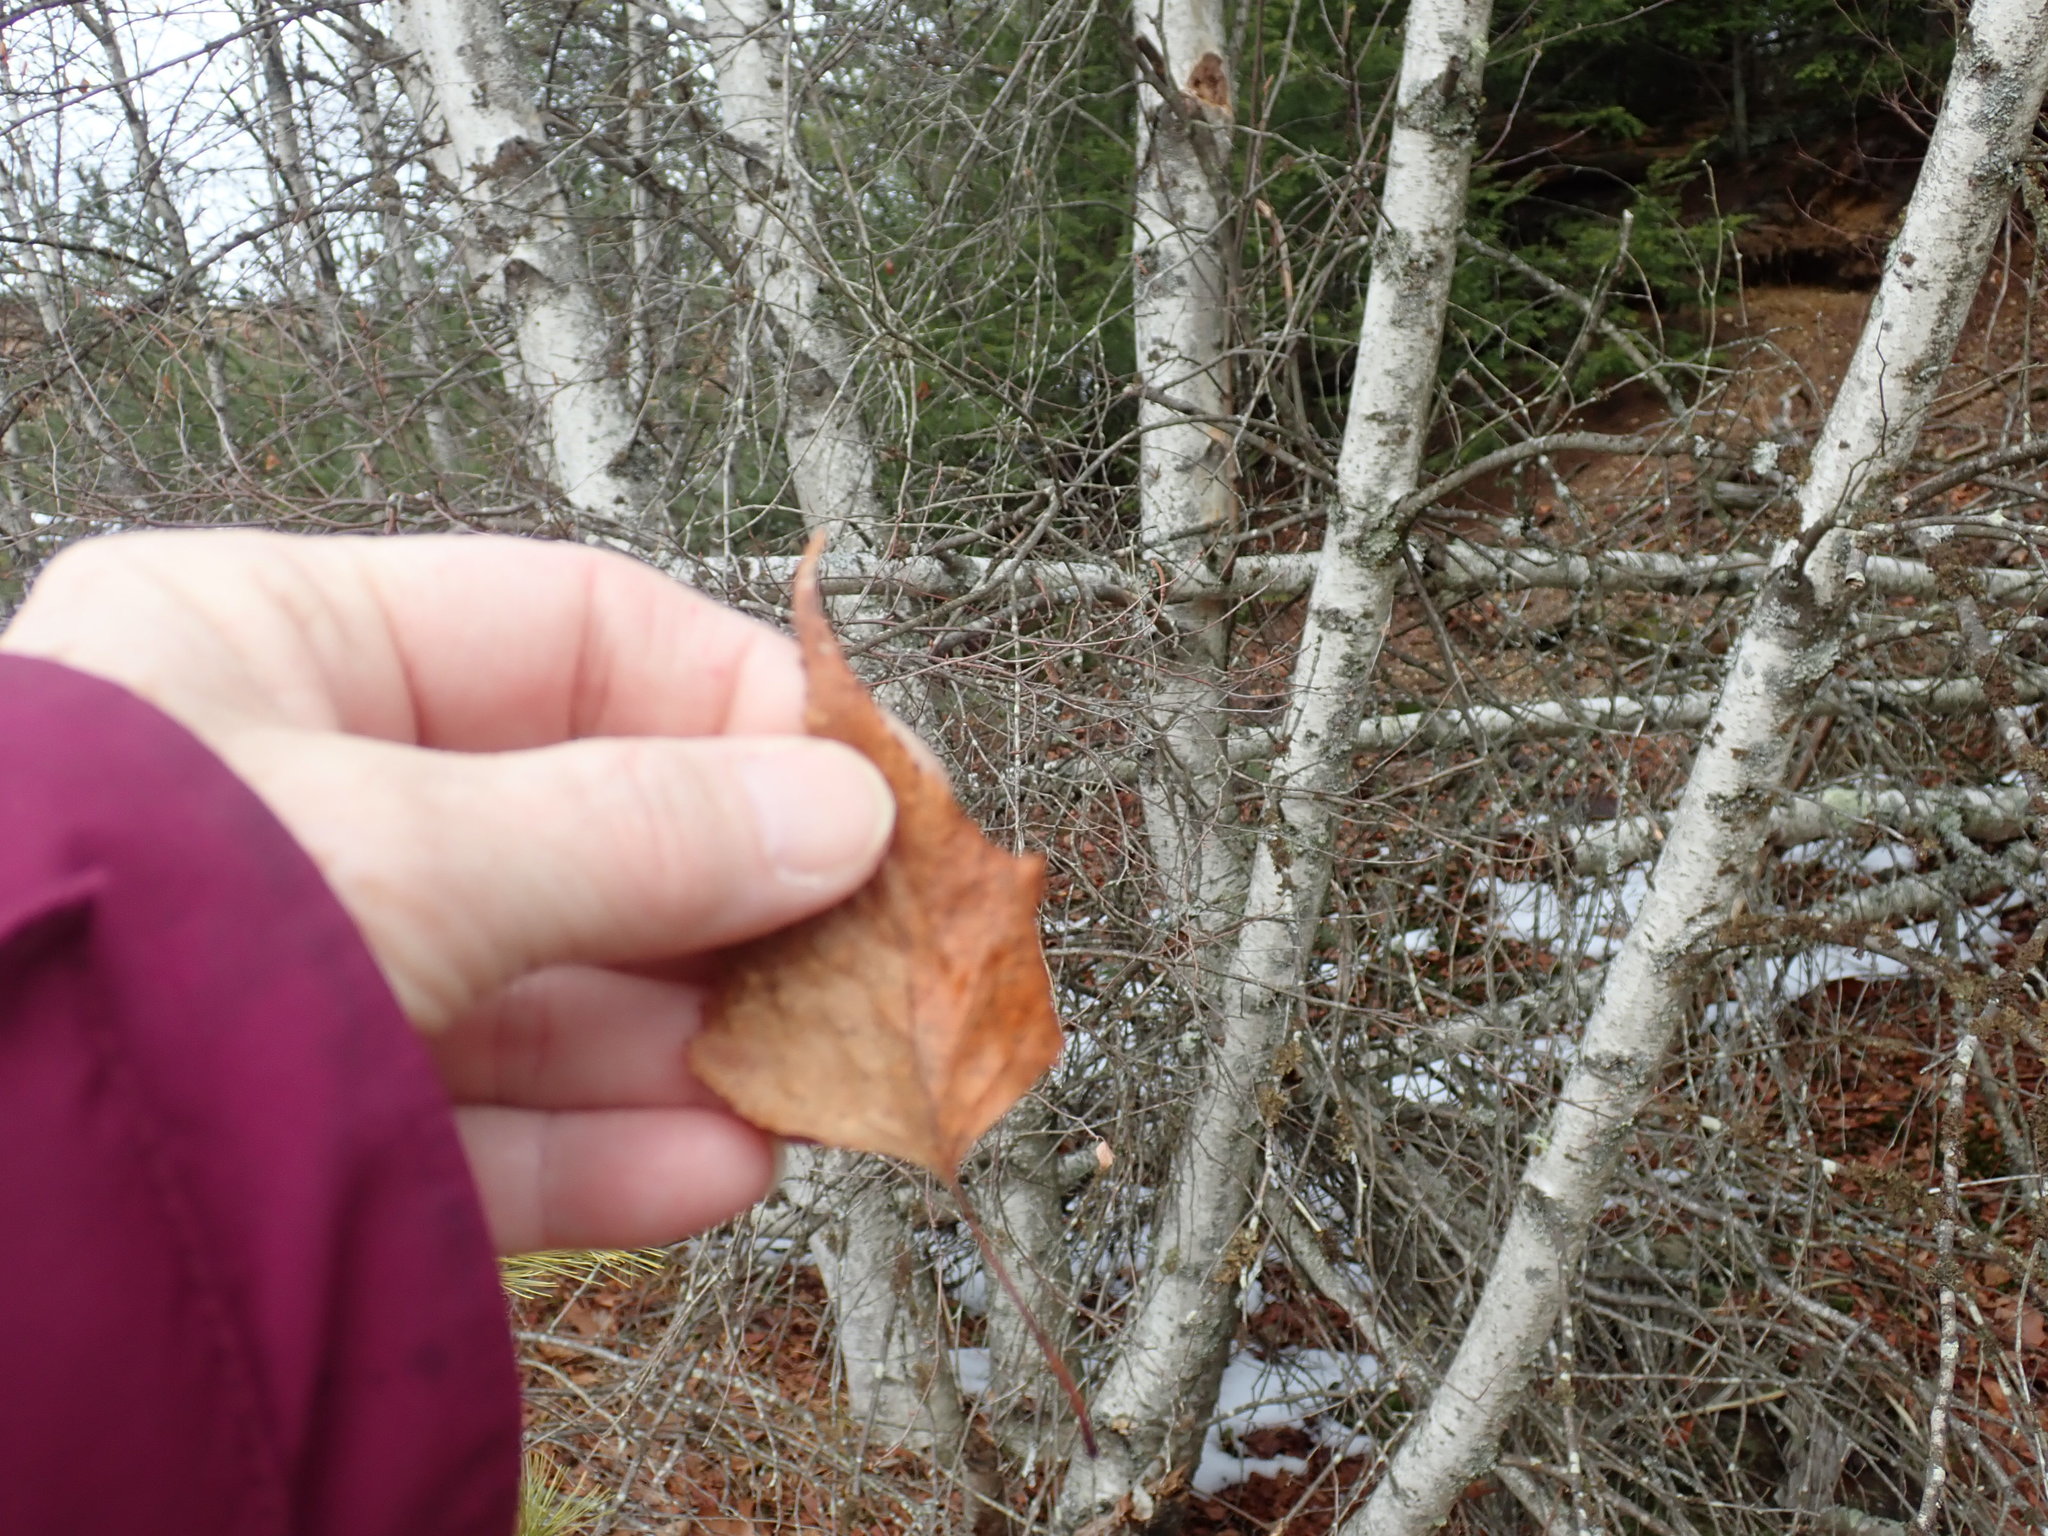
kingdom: Plantae
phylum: Tracheophyta
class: Magnoliopsida
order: Fagales
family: Betulaceae
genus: Betula
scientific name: Betula populifolia
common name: Fire birch
